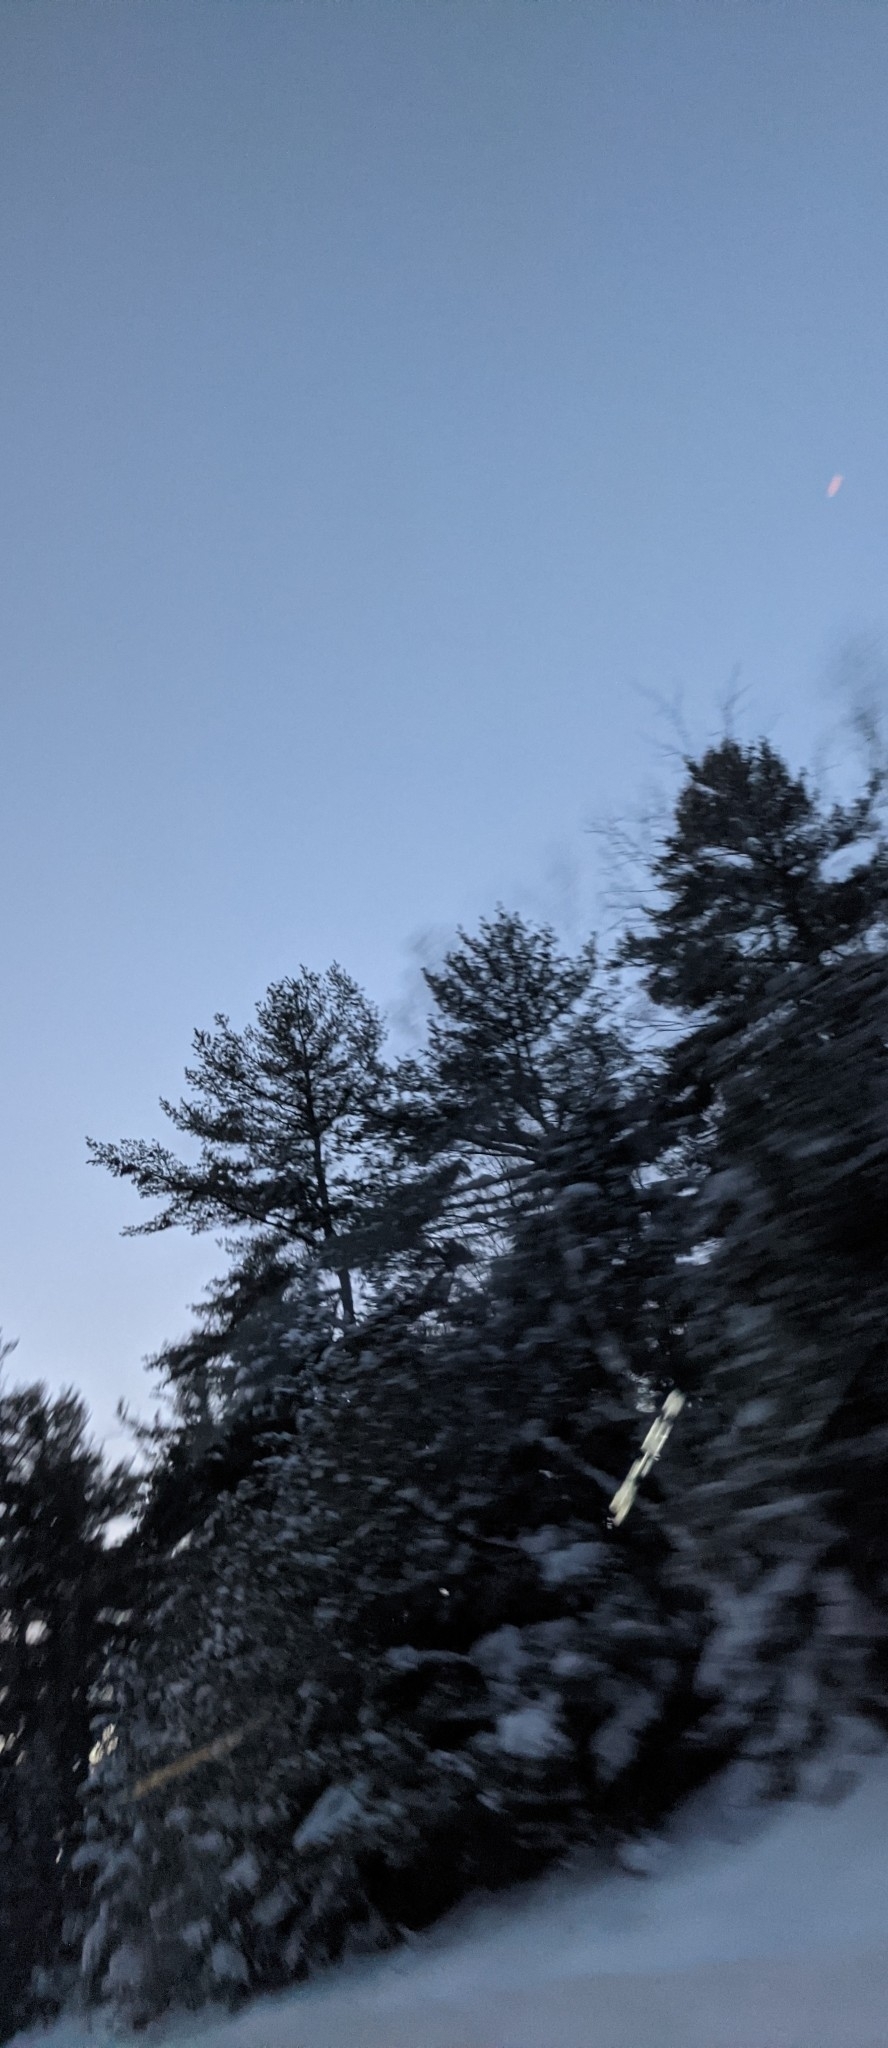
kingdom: Plantae
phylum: Tracheophyta
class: Pinopsida
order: Pinales
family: Pinaceae
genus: Pinus
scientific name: Pinus strobus
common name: Weymouth pine
